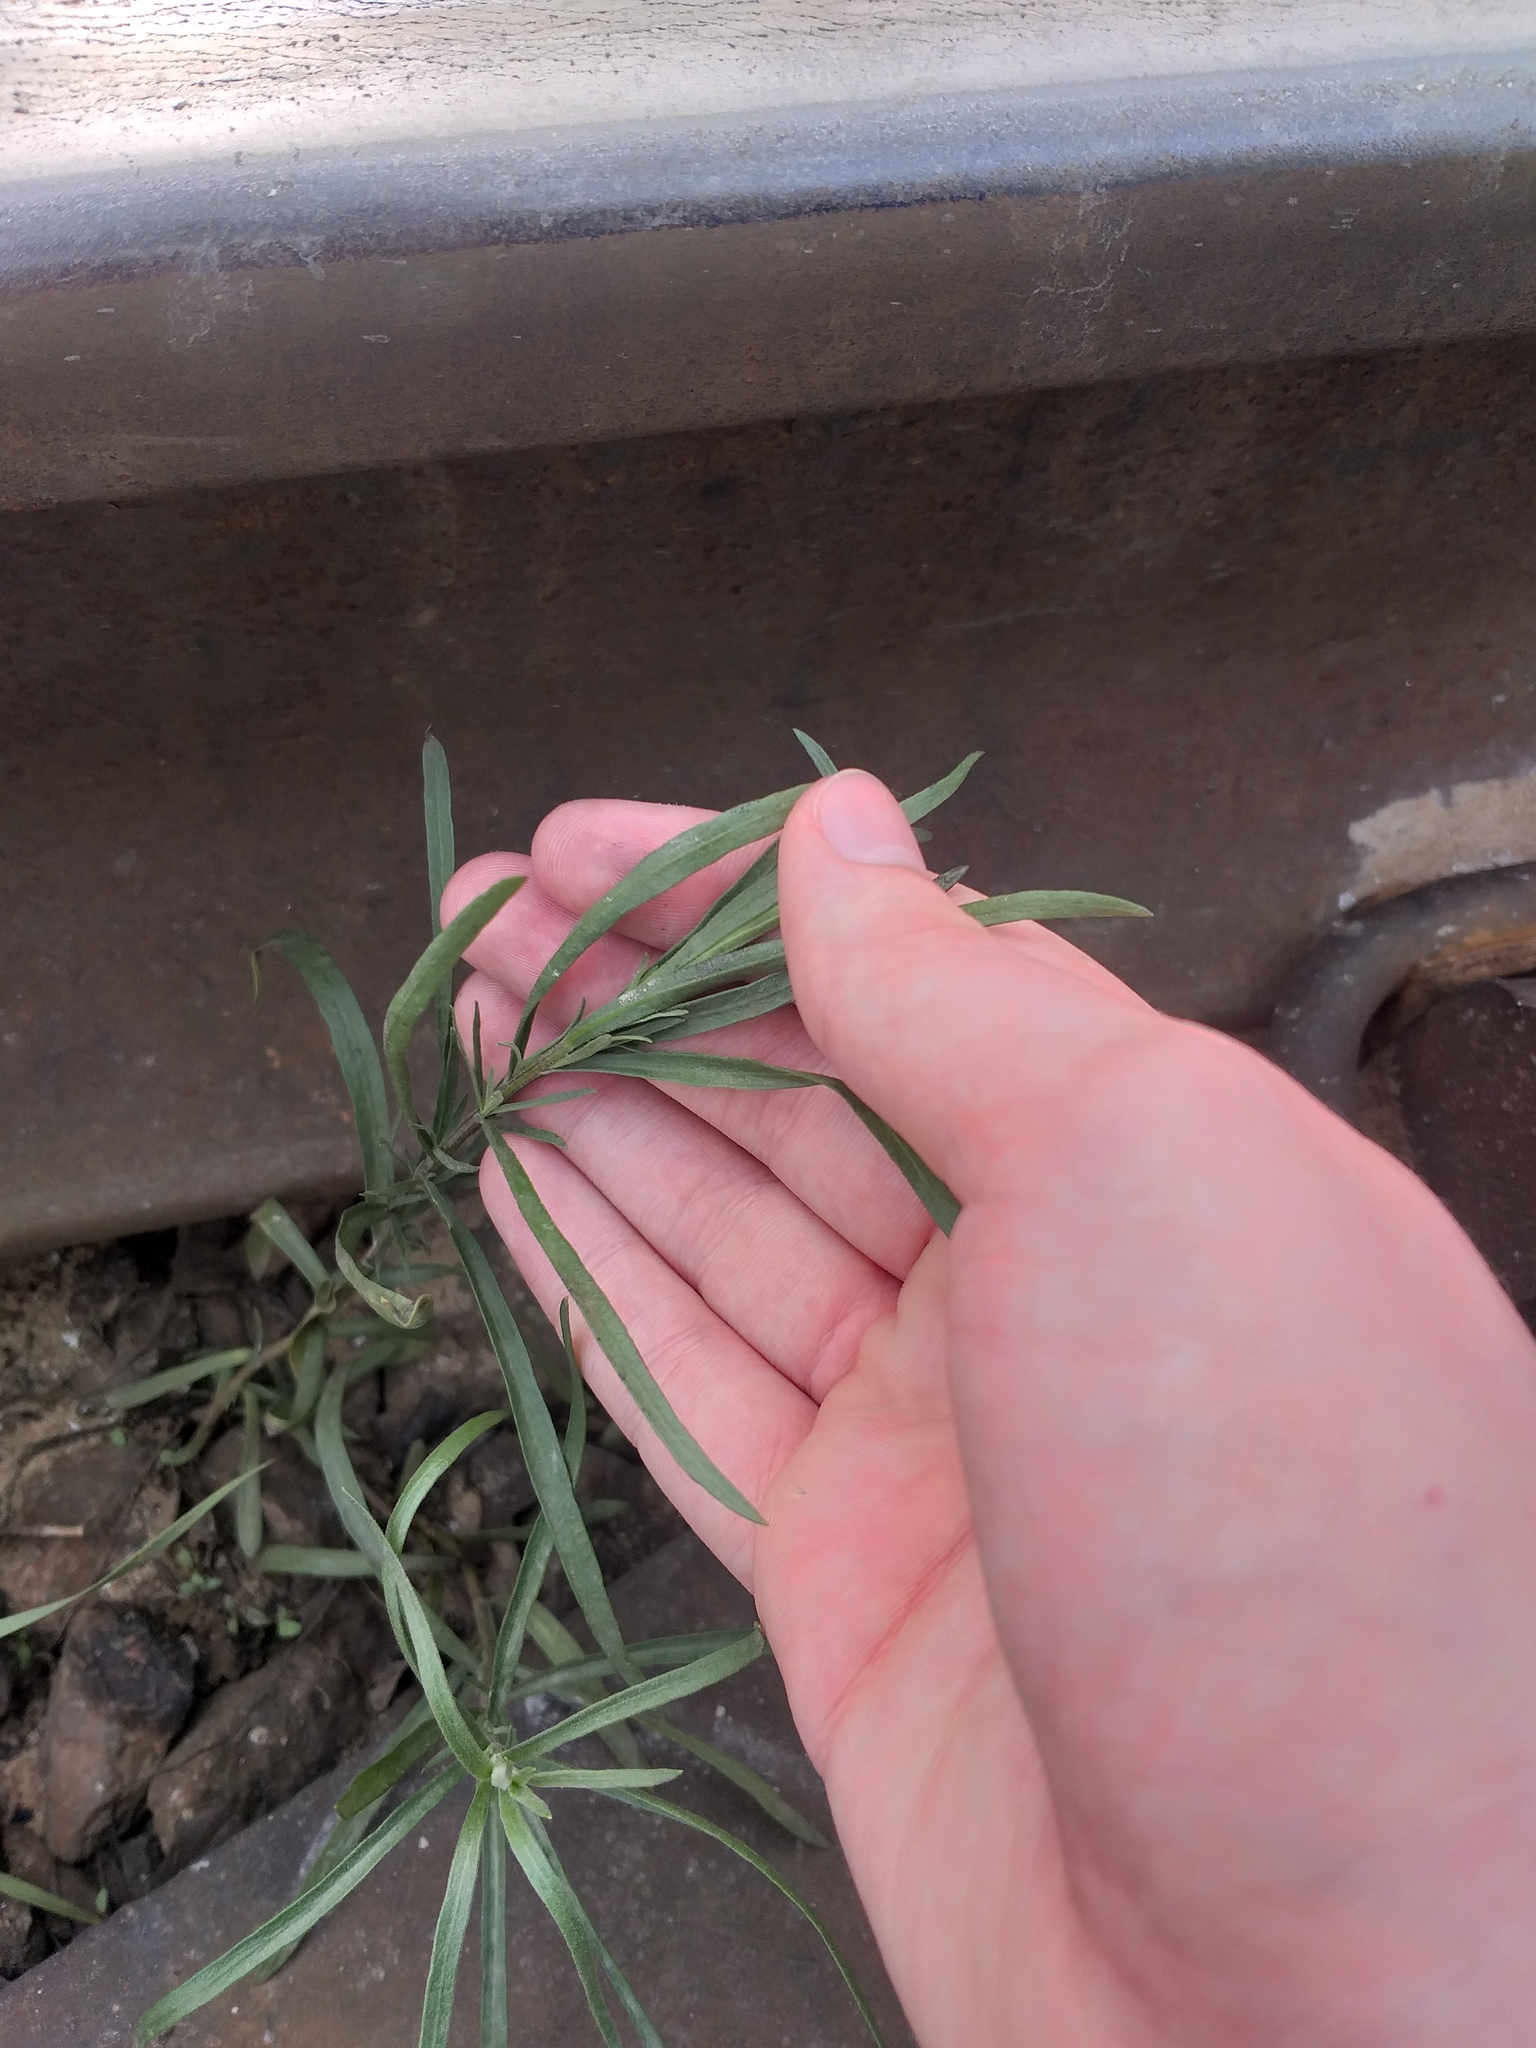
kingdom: Plantae
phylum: Tracheophyta
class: Magnoliopsida
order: Asterales
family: Asteraceae
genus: Artemisia
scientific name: Artemisia dracunculus
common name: Tarragon
